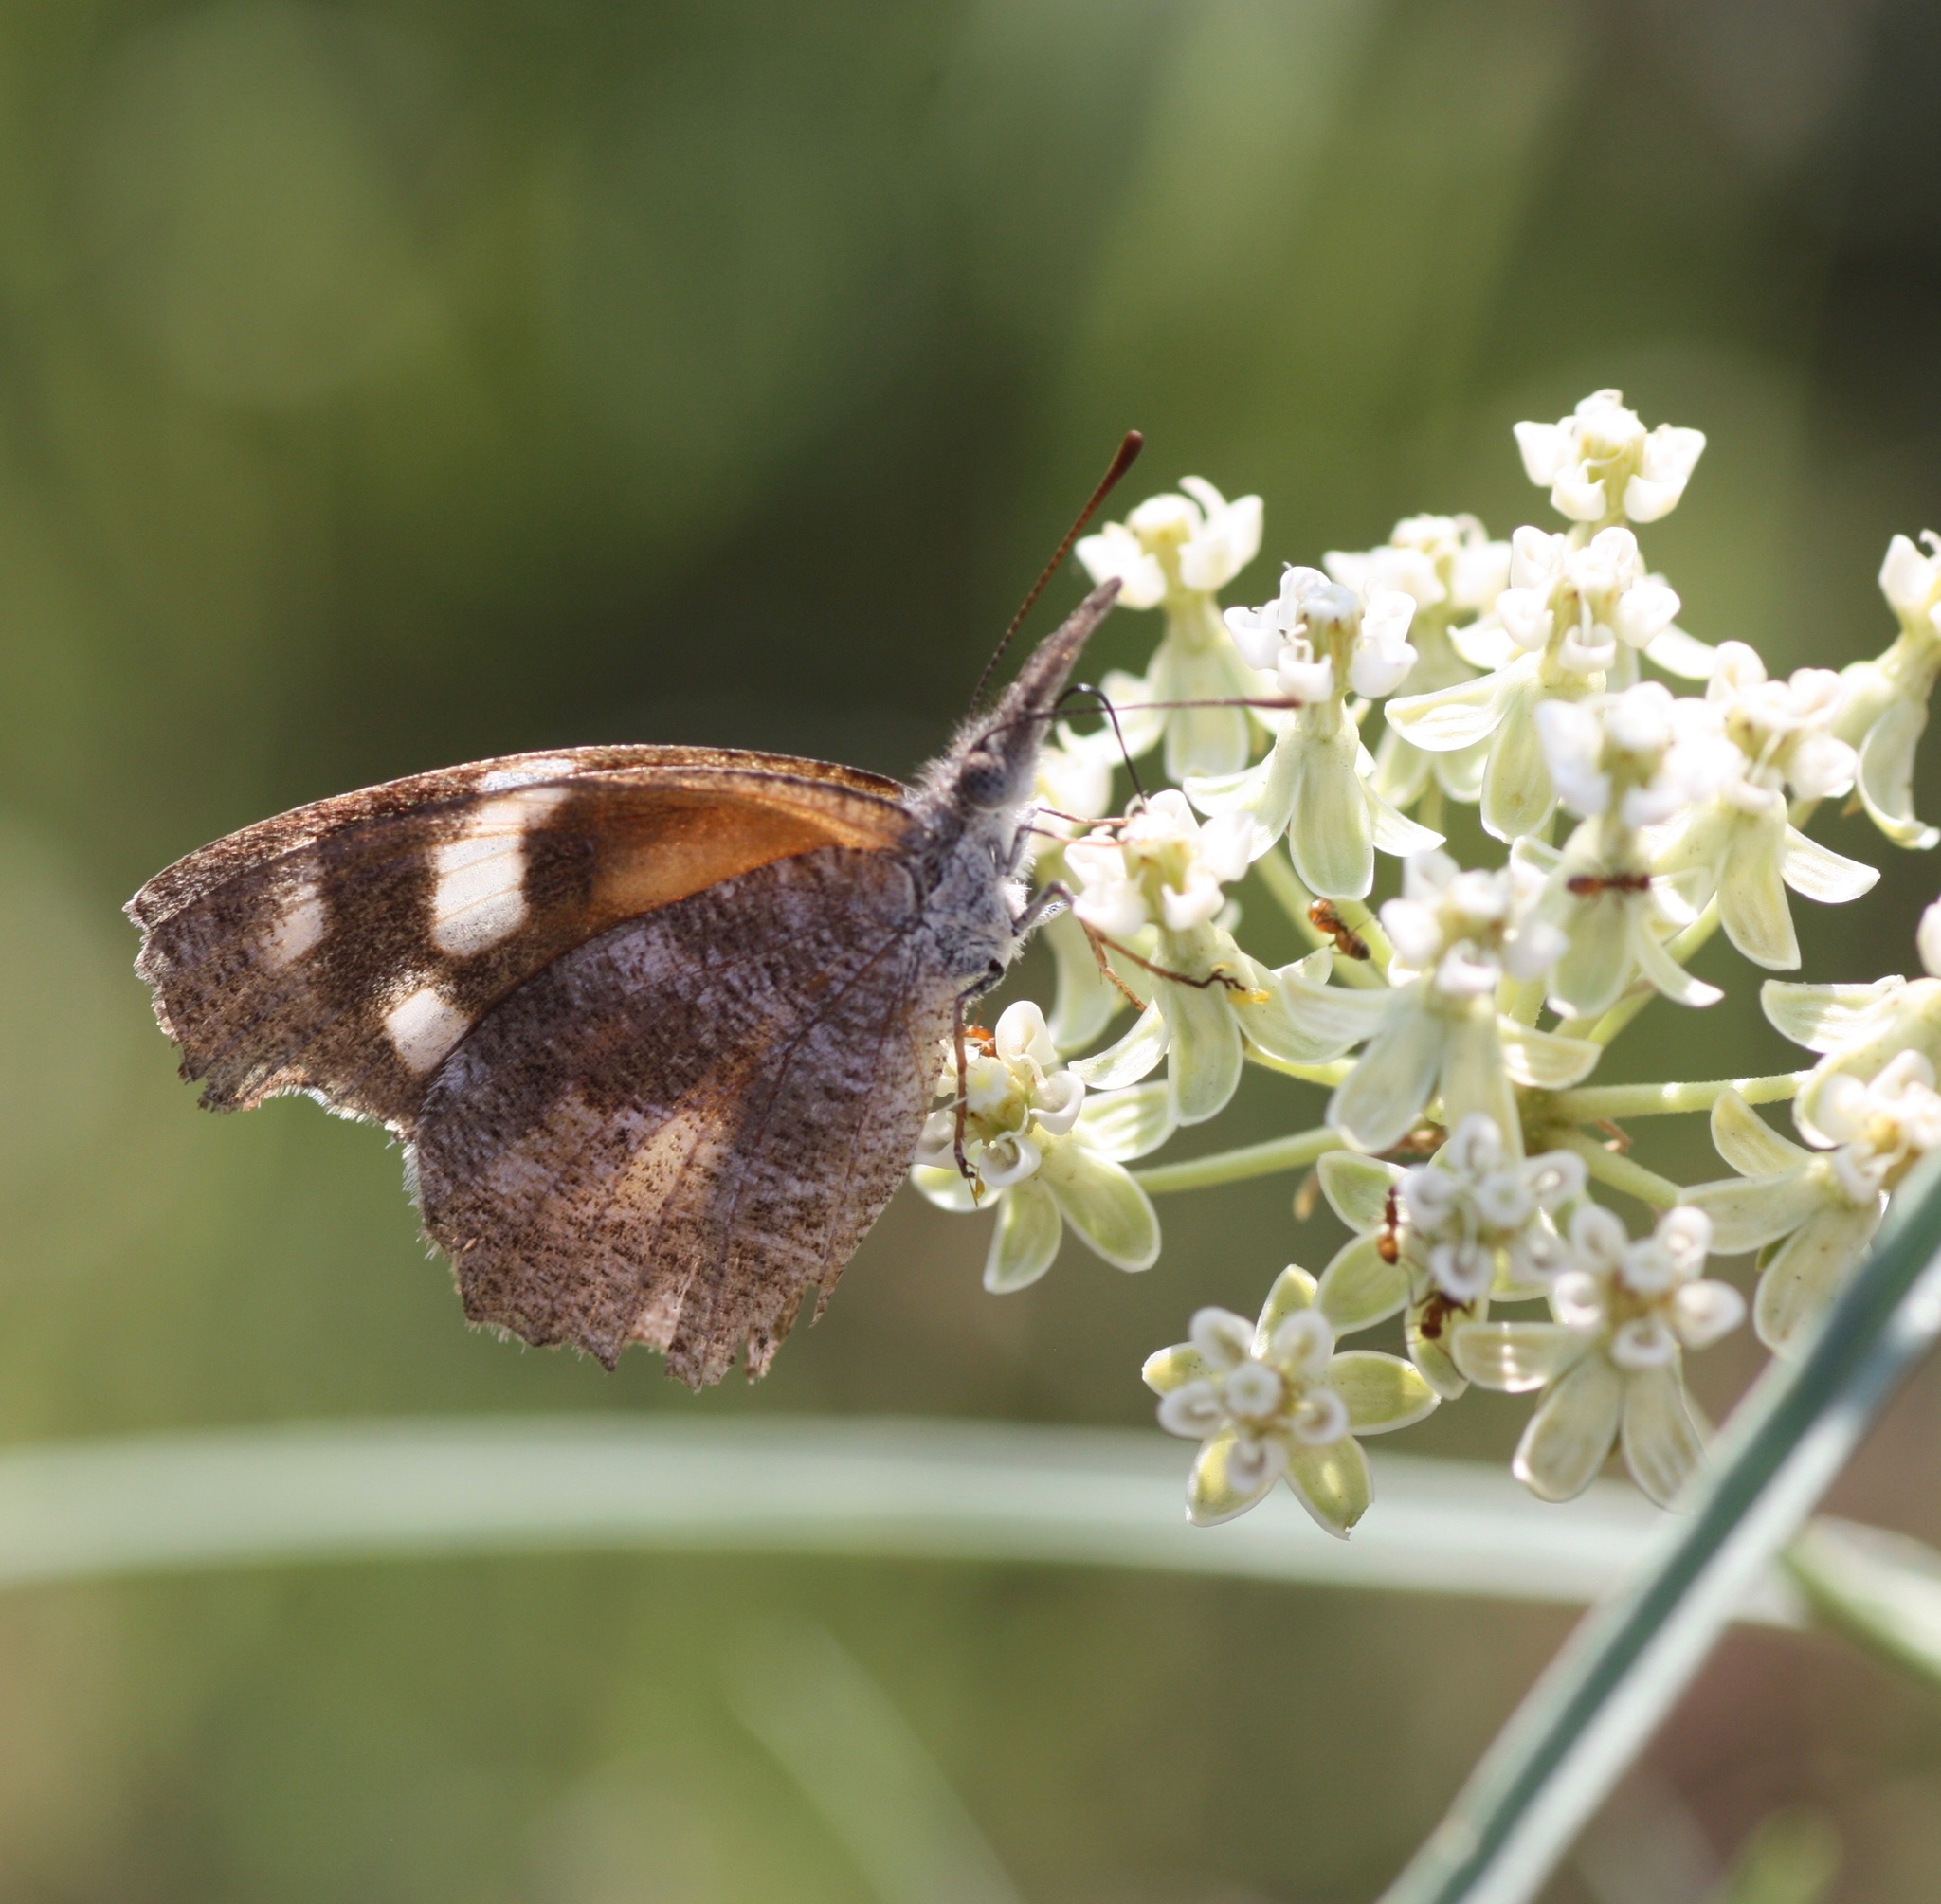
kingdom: Animalia
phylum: Arthropoda
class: Insecta
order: Lepidoptera
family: Nymphalidae
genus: Libytheana
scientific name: Libytheana carinenta
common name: American snout
